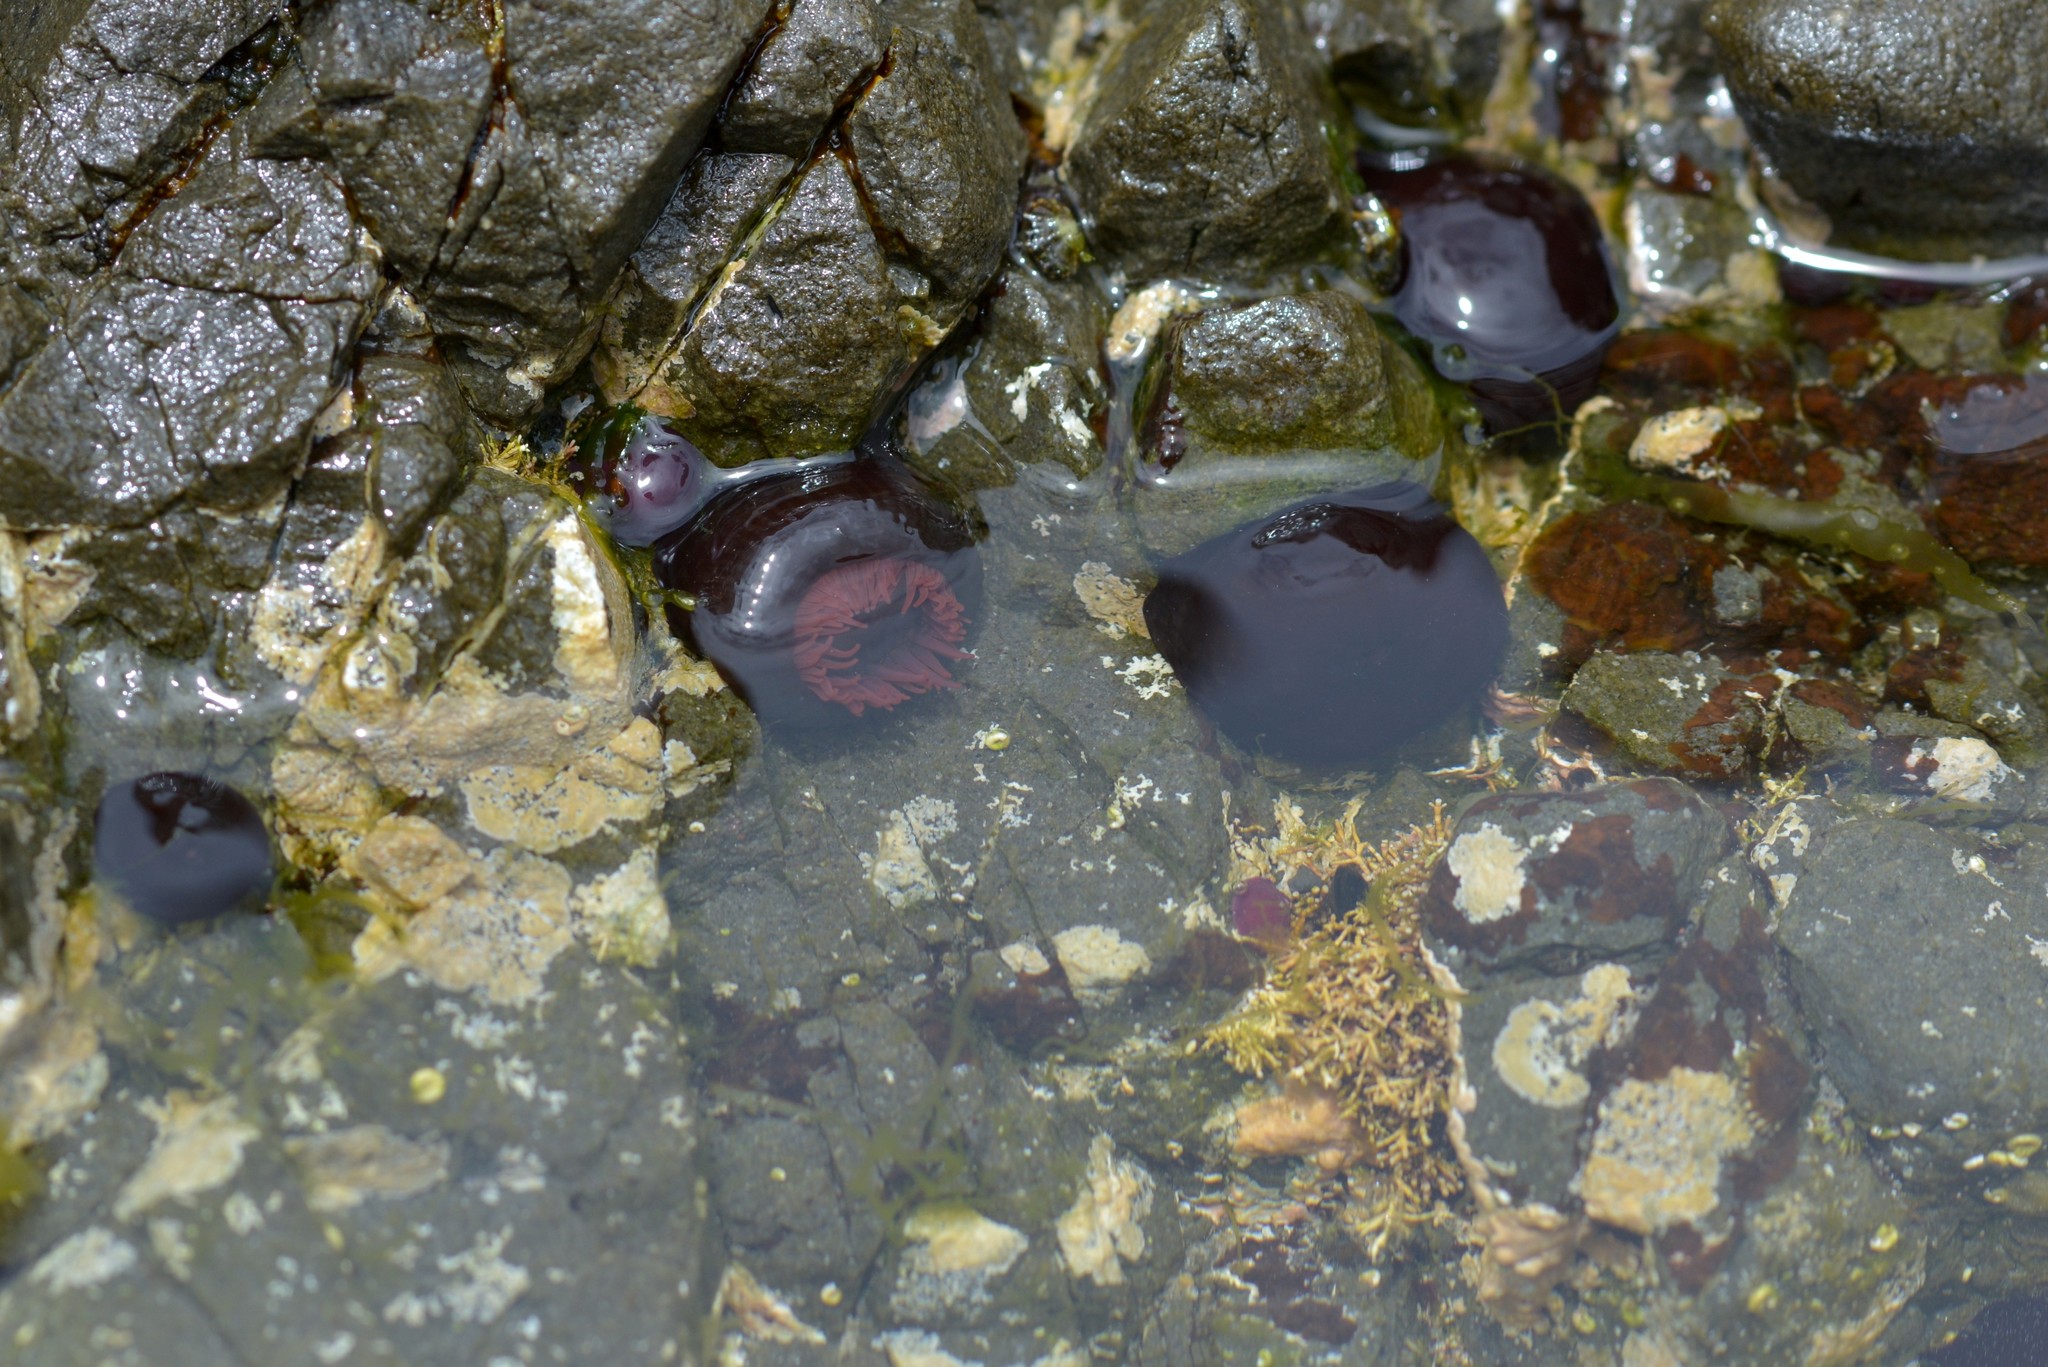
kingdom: Animalia
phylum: Cnidaria
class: Anthozoa
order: Actiniaria
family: Actiniidae
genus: Actinia
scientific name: Actinia tenebrosa
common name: Waratah anemone
